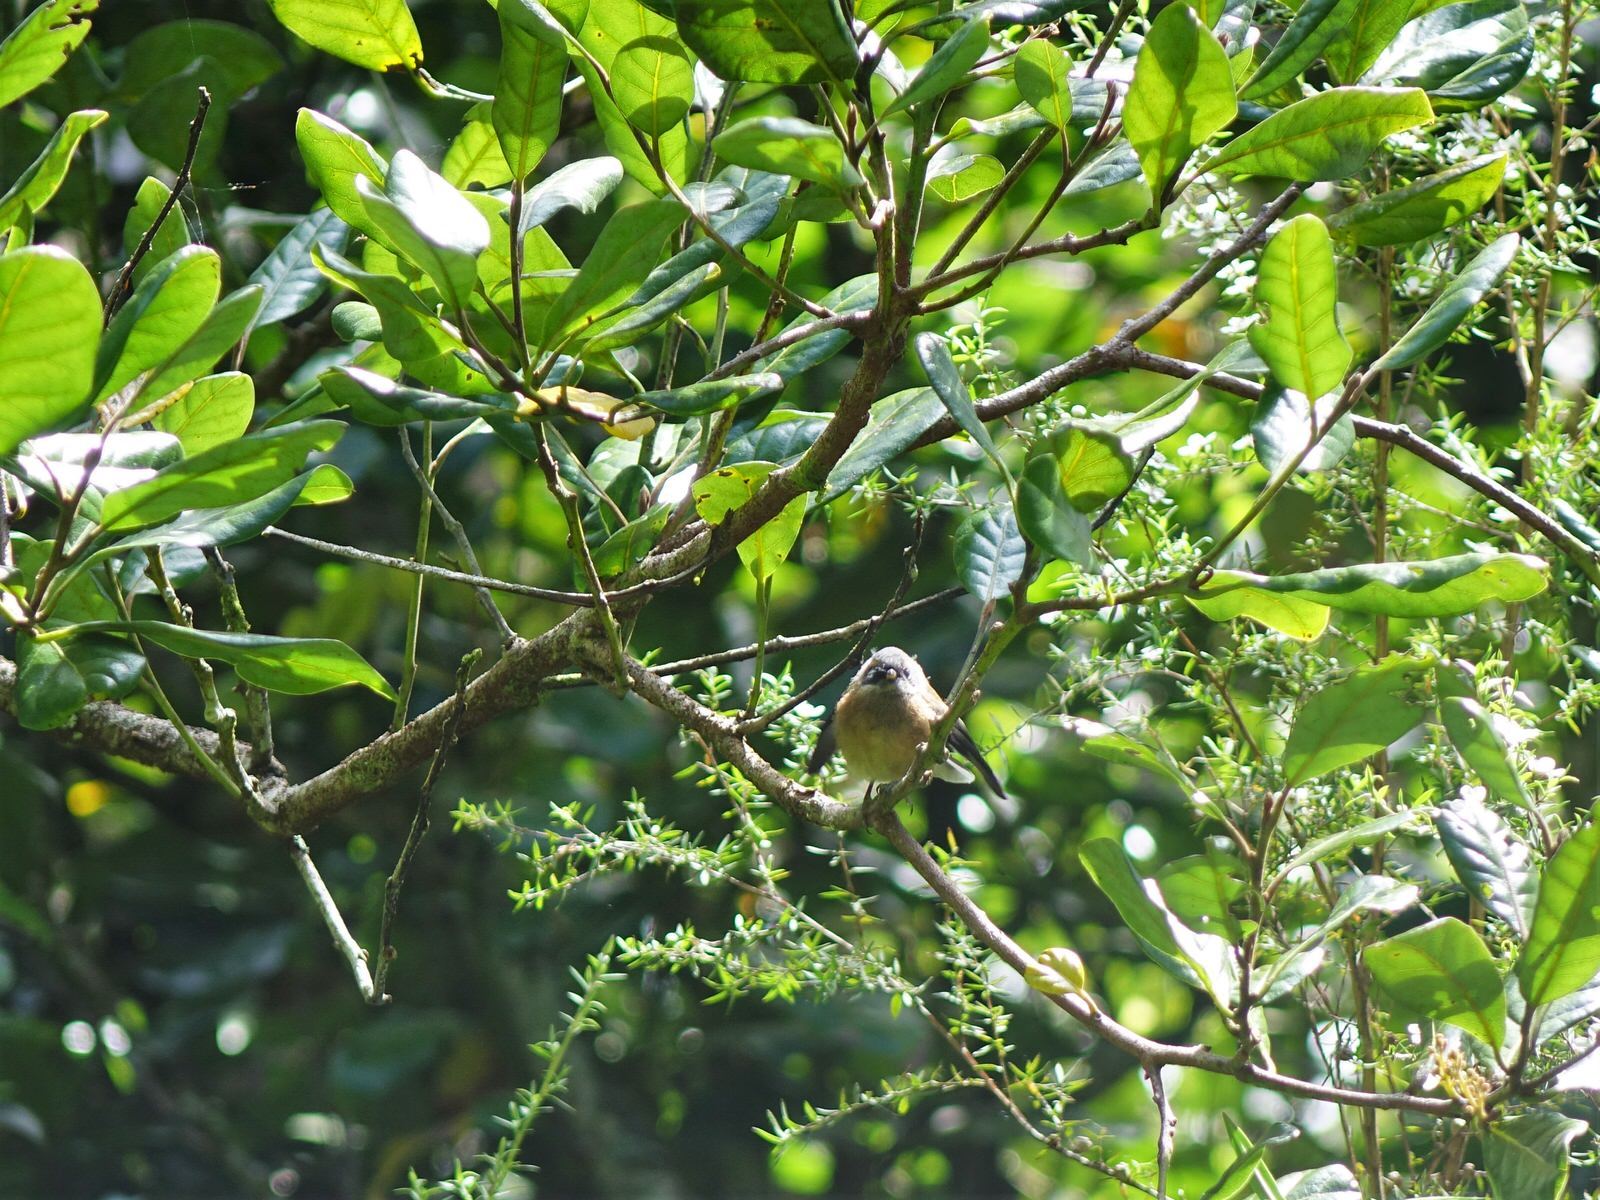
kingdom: Animalia
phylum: Chordata
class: Aves
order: Passeriformes
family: Rhipiduridae
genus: Rhipidura
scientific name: Rhipidura fuliginosa
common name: New zealand fantail
